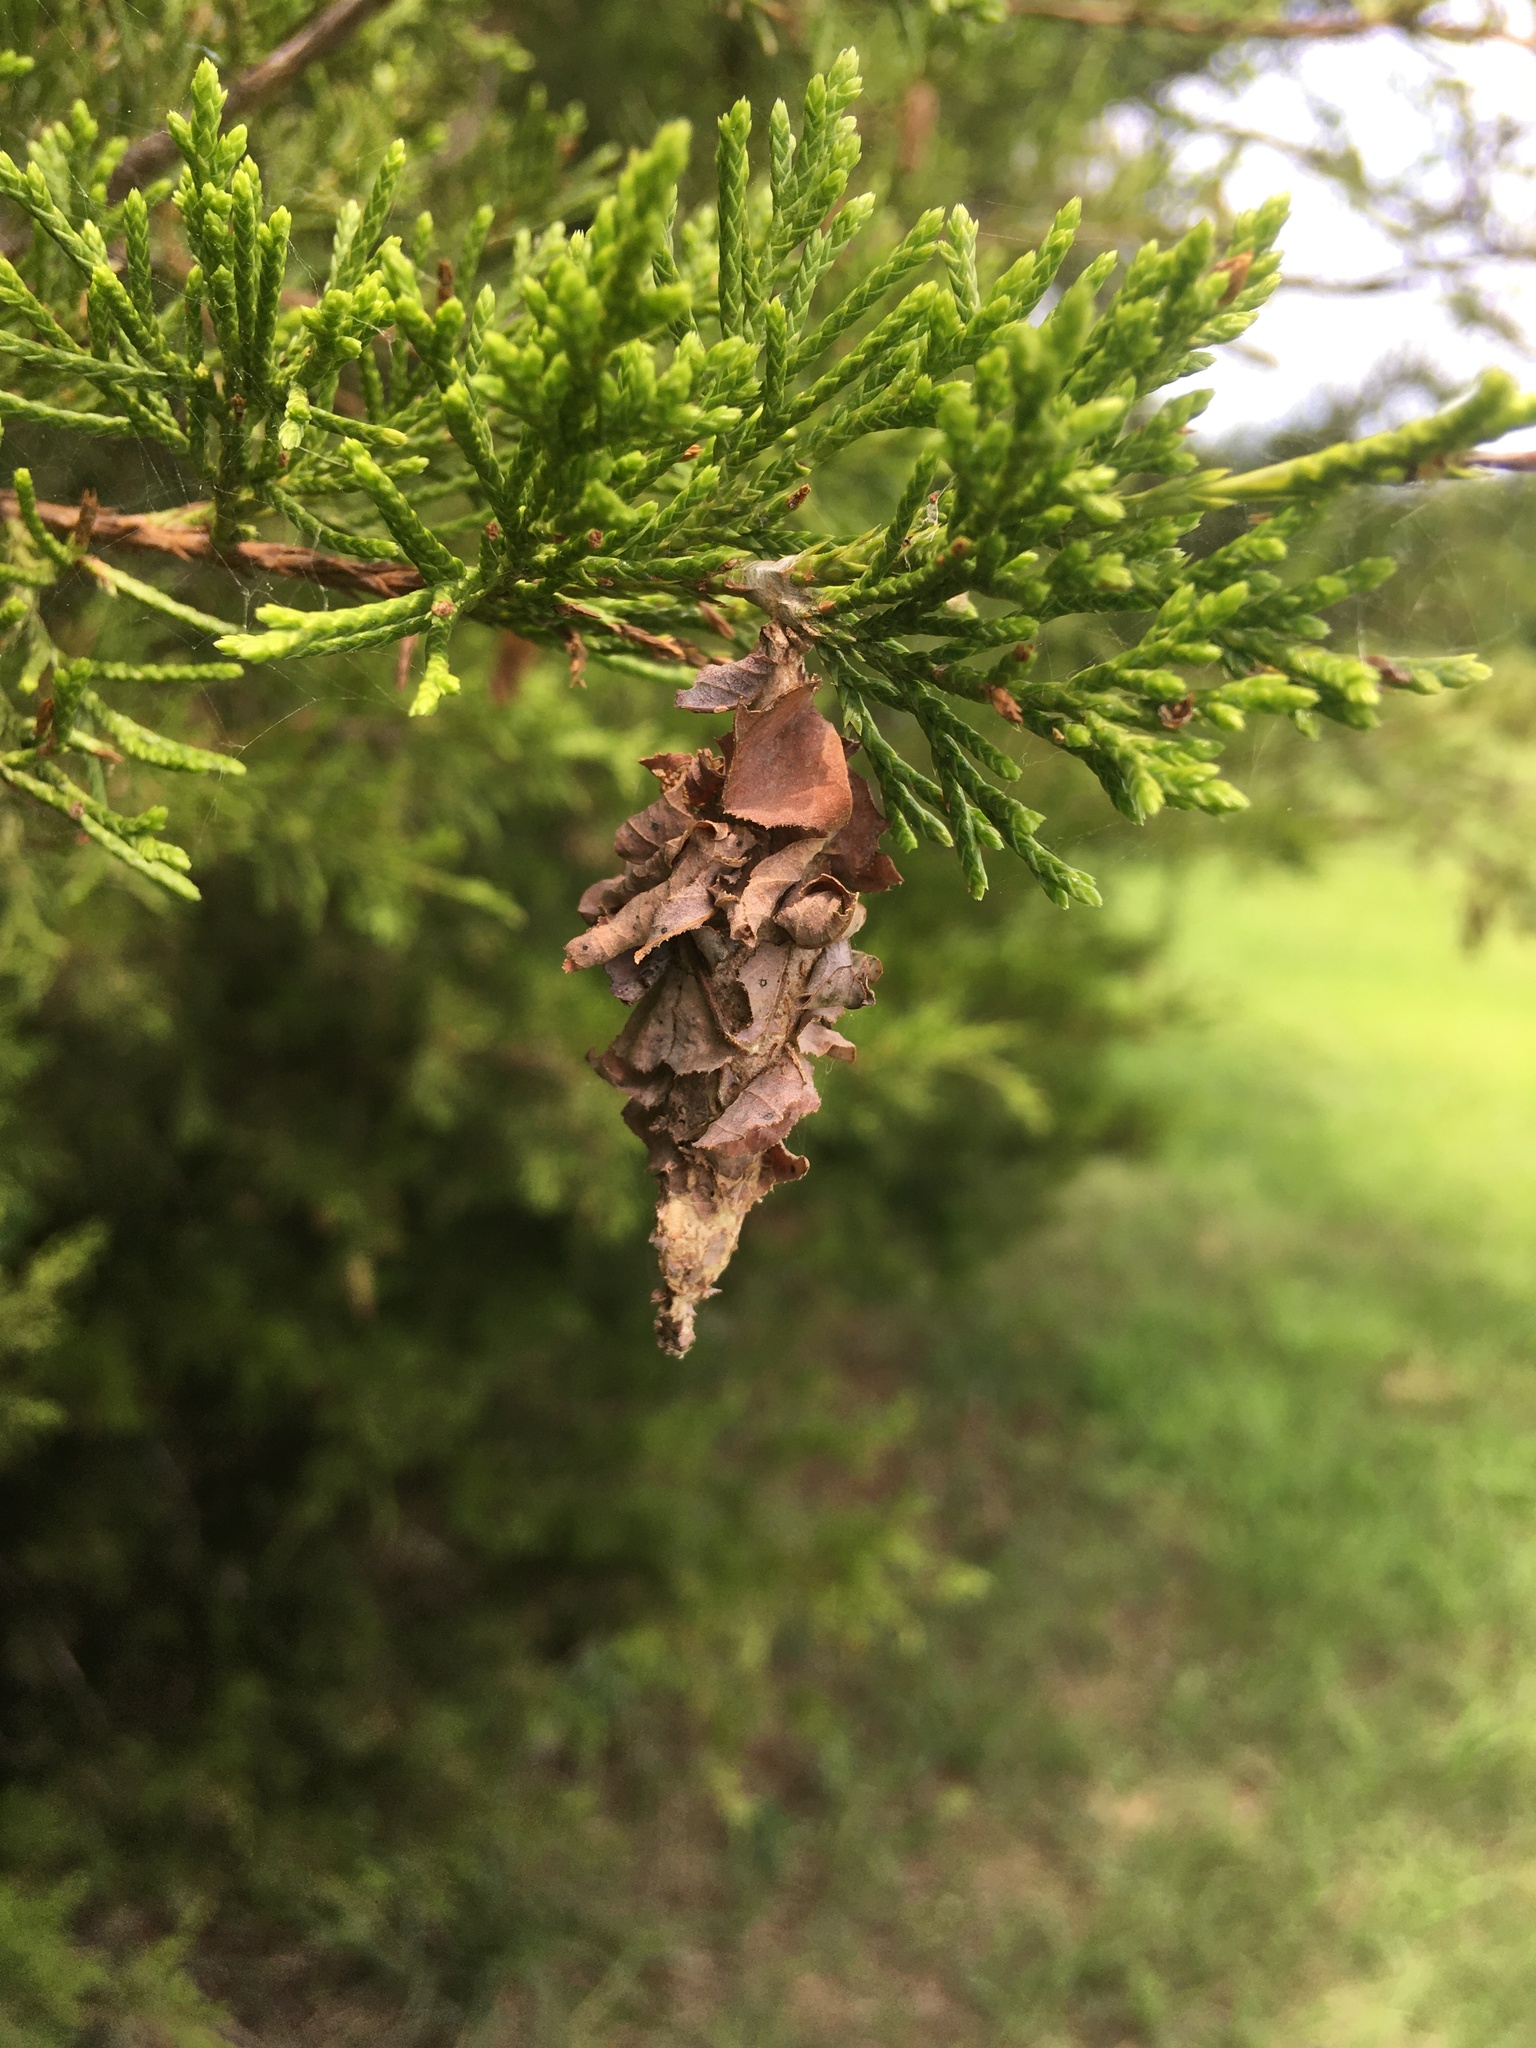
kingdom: Animalia
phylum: Arthropoda
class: Insecta
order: Lepidoptera
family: Psychidae
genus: Thyridopteryx
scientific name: Thyridopteryx ephemeraeformis
